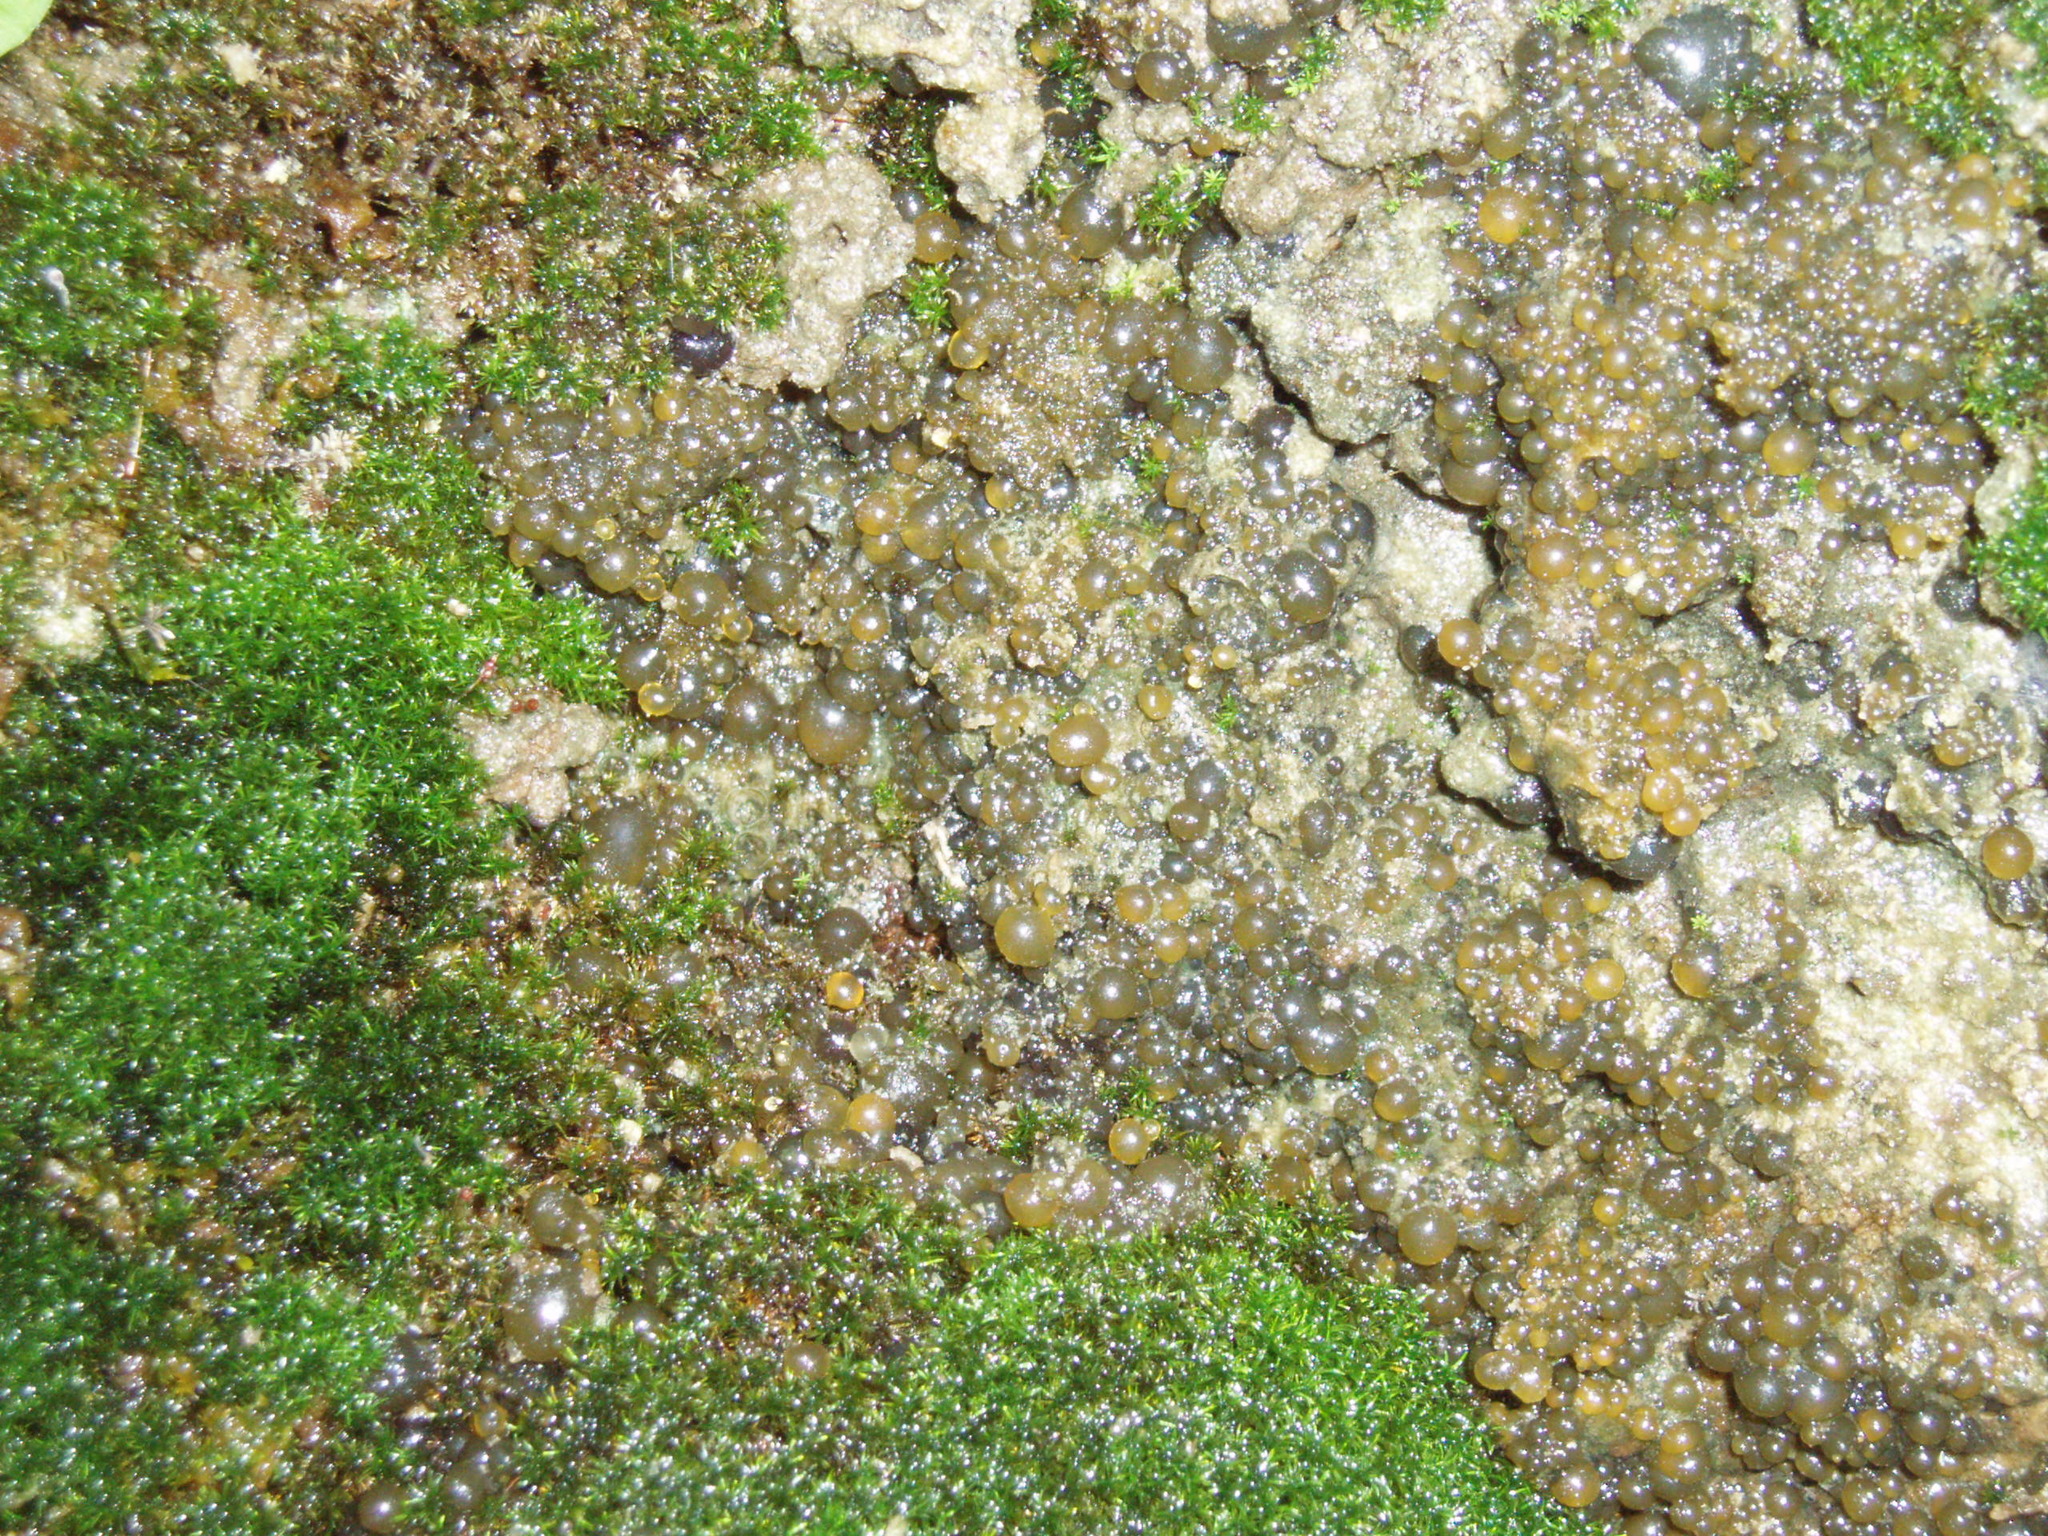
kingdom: Bacteria
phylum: Cyanobacteria
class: Cyanobacteriia
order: Cyanobacteriales
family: Nostocaceae
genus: Nostoc
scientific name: Nostoc
